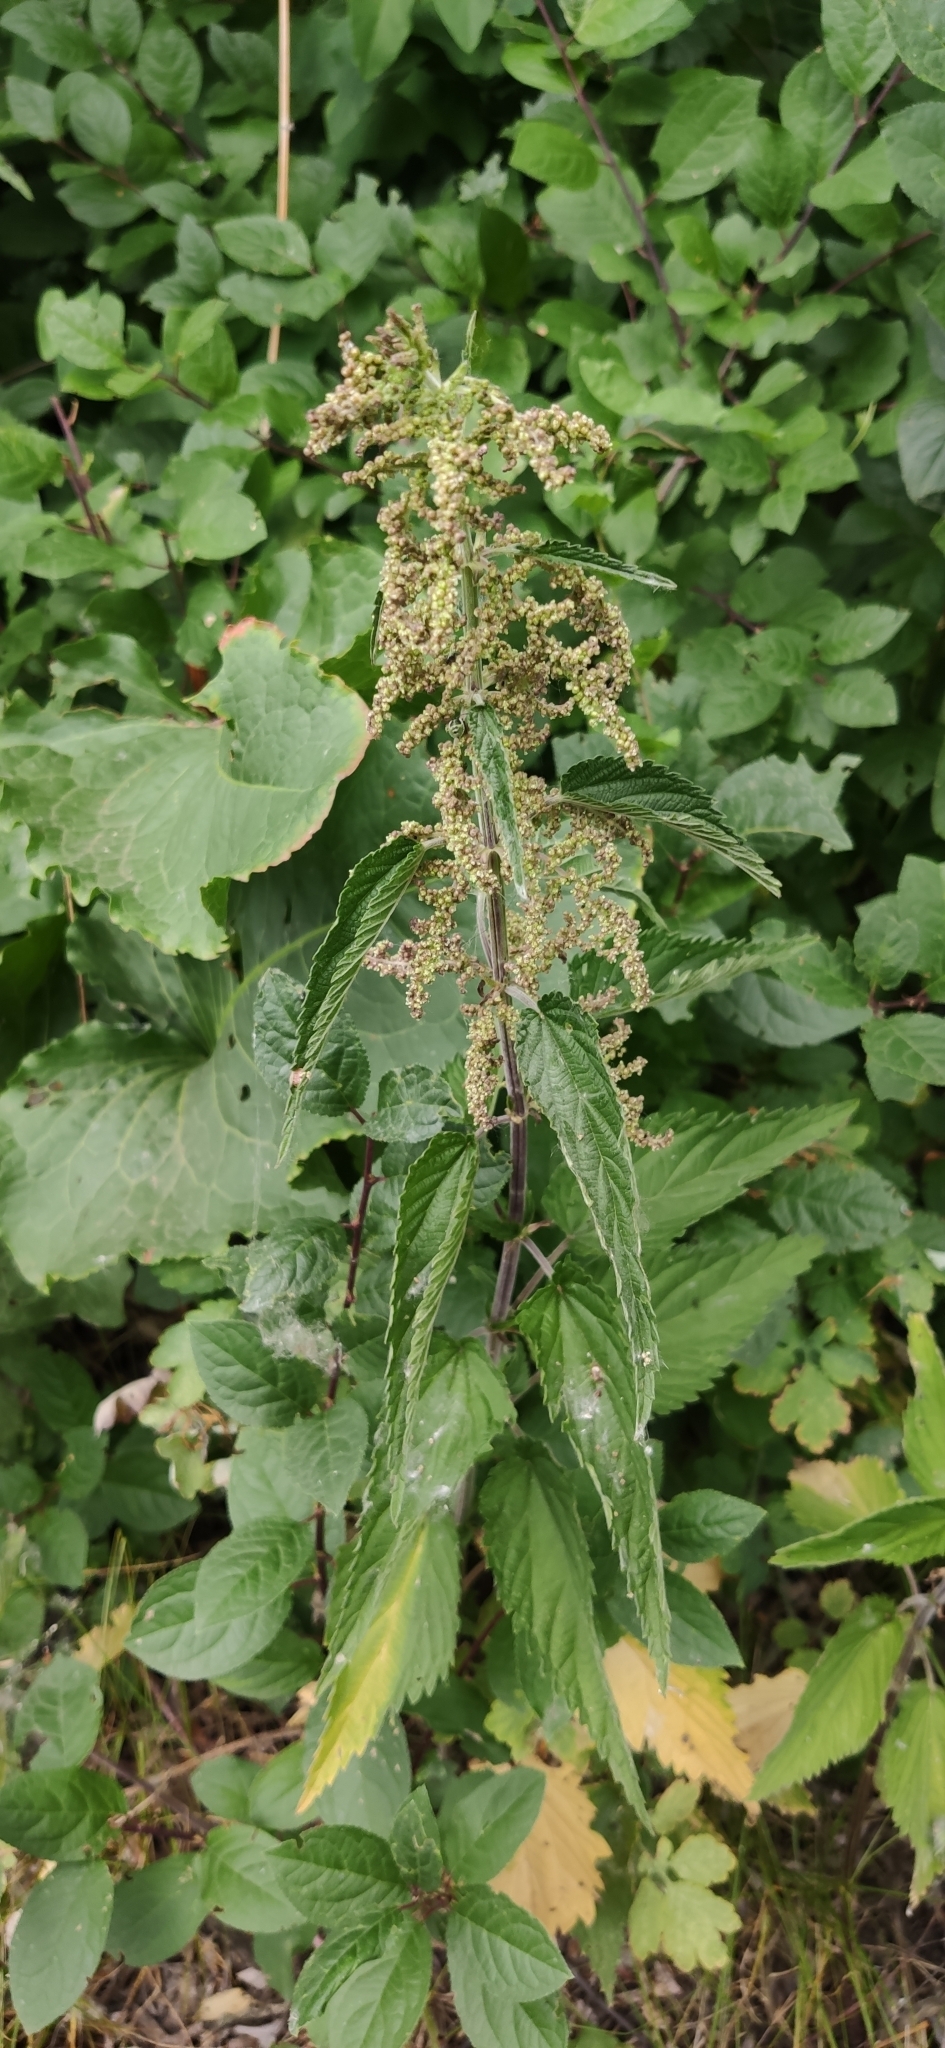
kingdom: Plantae
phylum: Tracheophyta
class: Magnoliopsida
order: Rosales
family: Urticaceae
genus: Urtica
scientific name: Urtica dioica
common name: Common nettle
